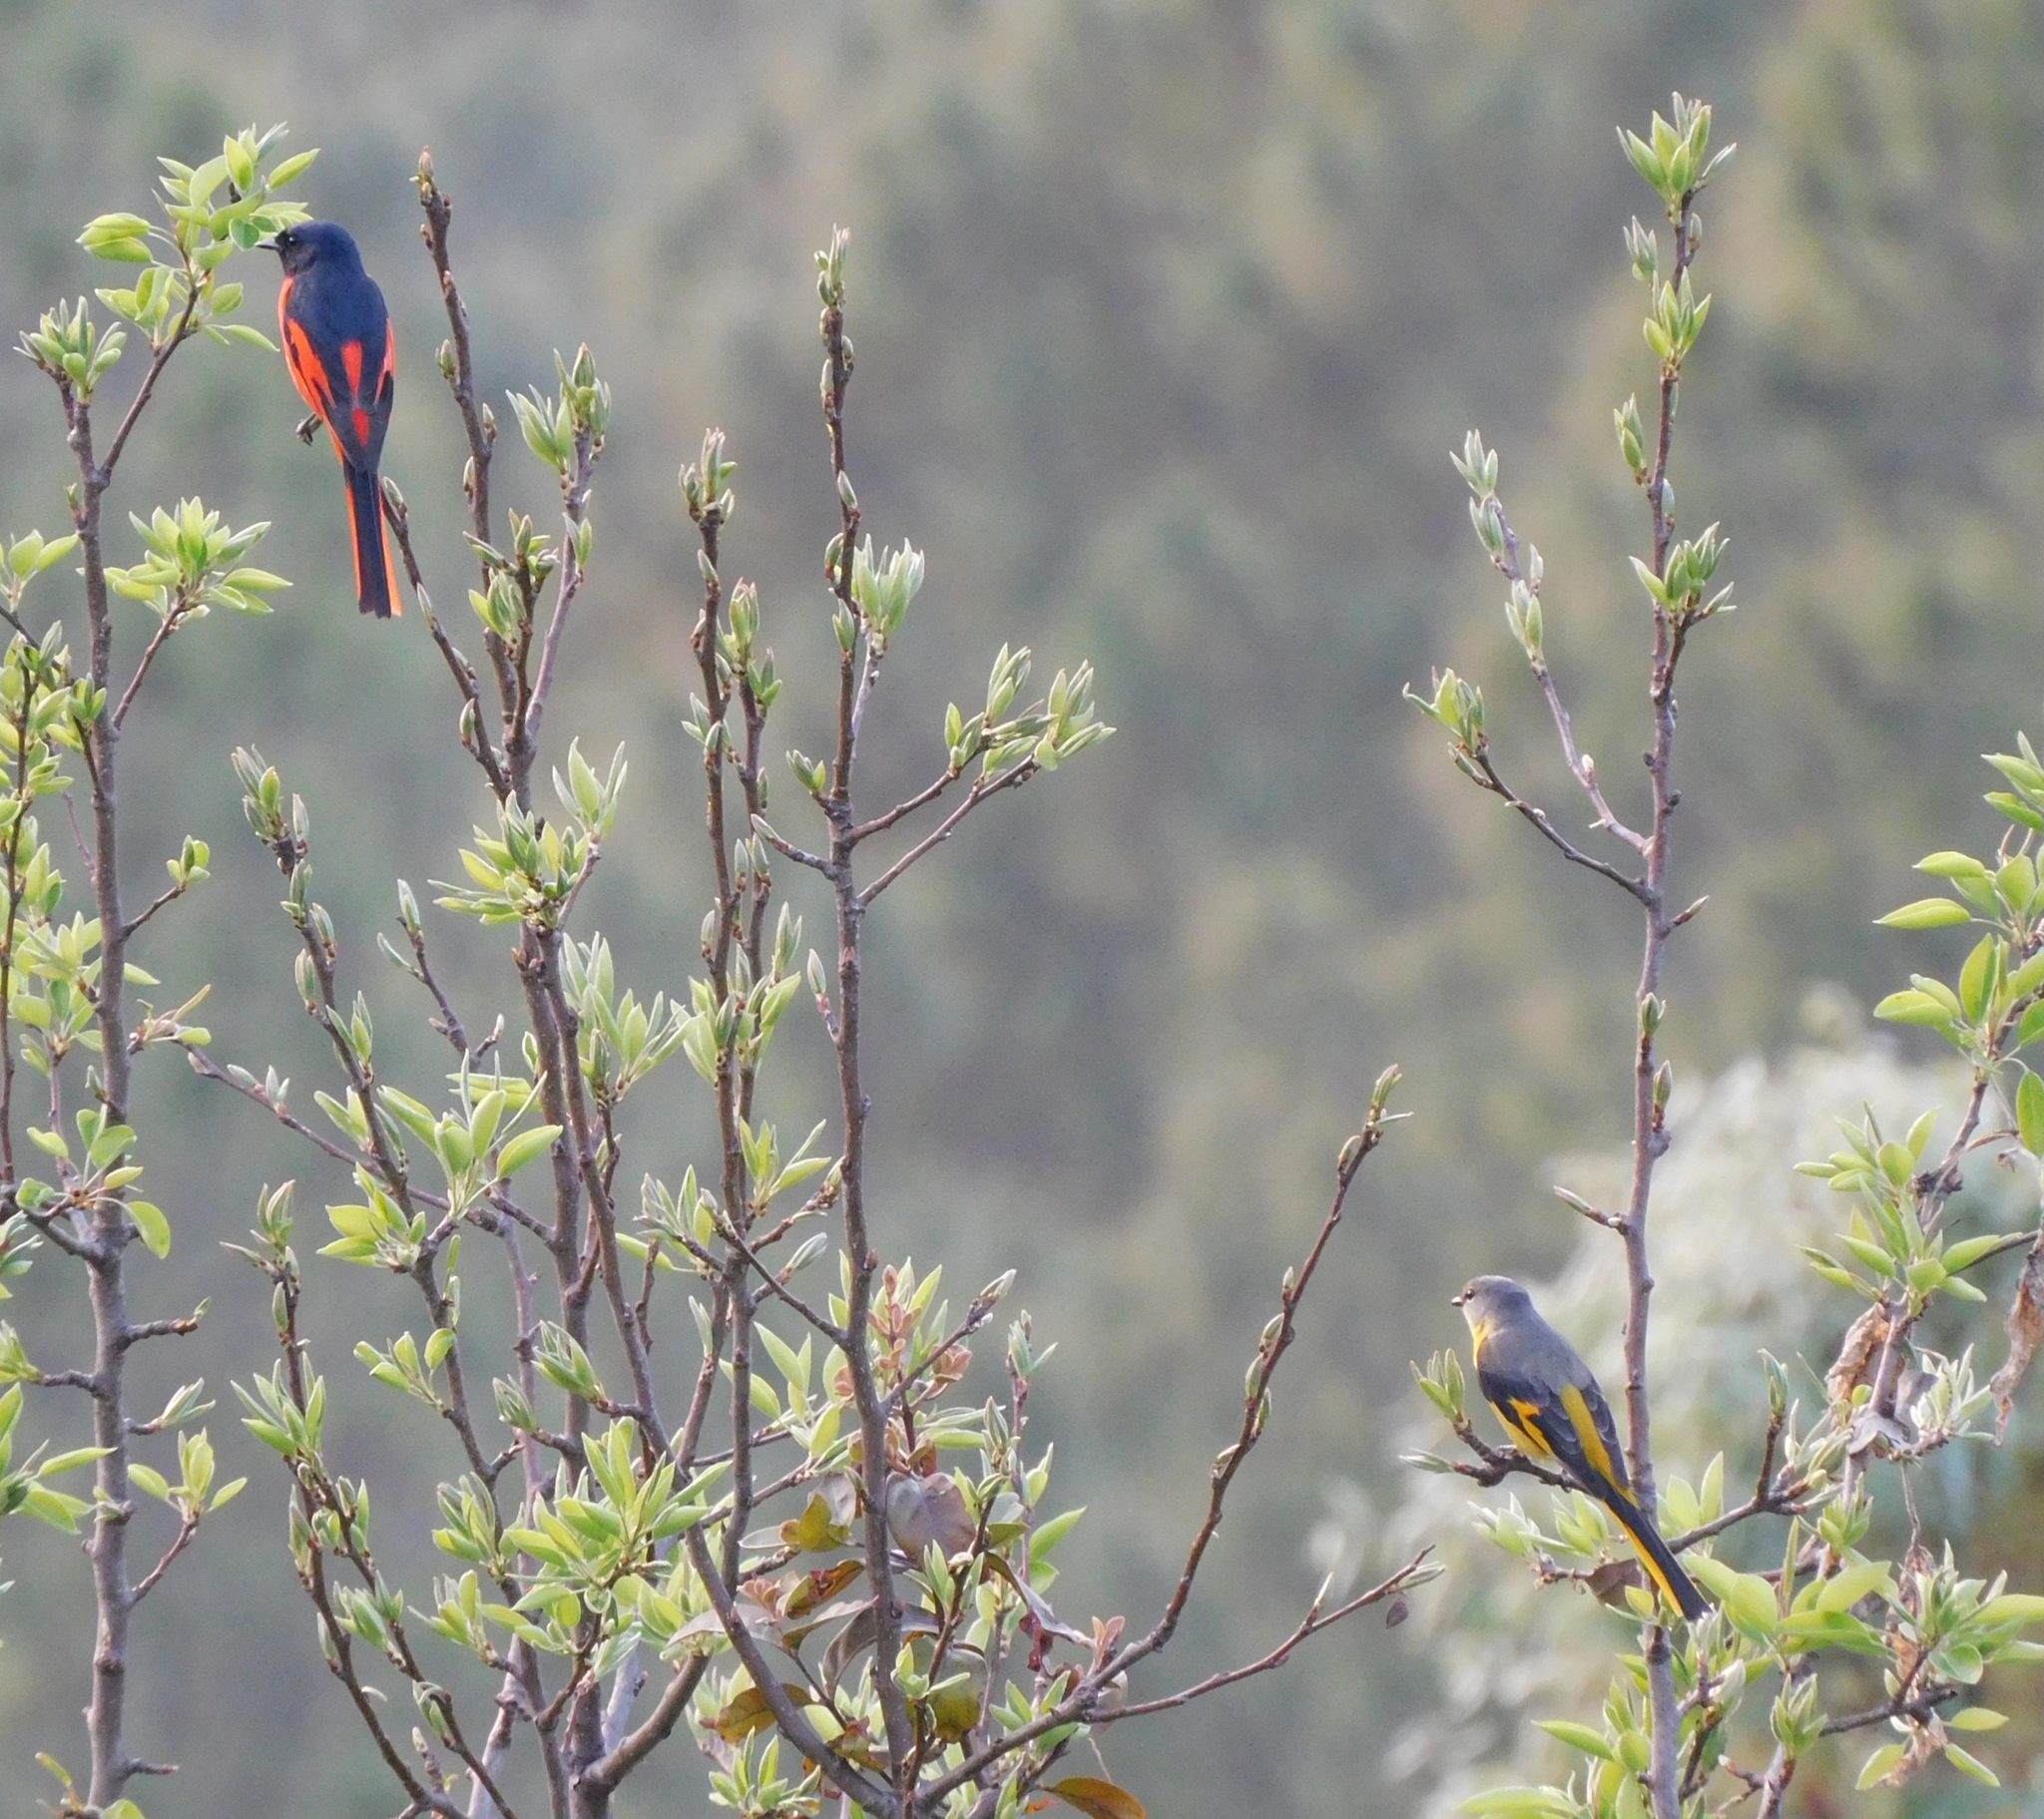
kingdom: Animalia
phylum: Chordata
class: Aves
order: Passeriformes
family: Campephagidae
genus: Pericrocotus
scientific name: Pericrocotus ethologus
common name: Long-tailed minivet
